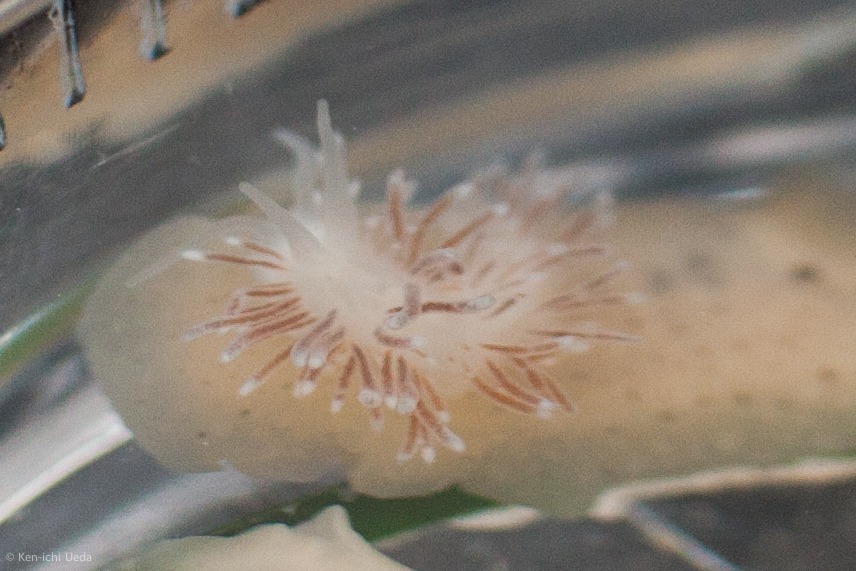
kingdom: Animalia
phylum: Mollusca
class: Gastropoda
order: Nudibranchia
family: Cuthonidae
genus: Cuthona
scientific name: Cuthona divae
